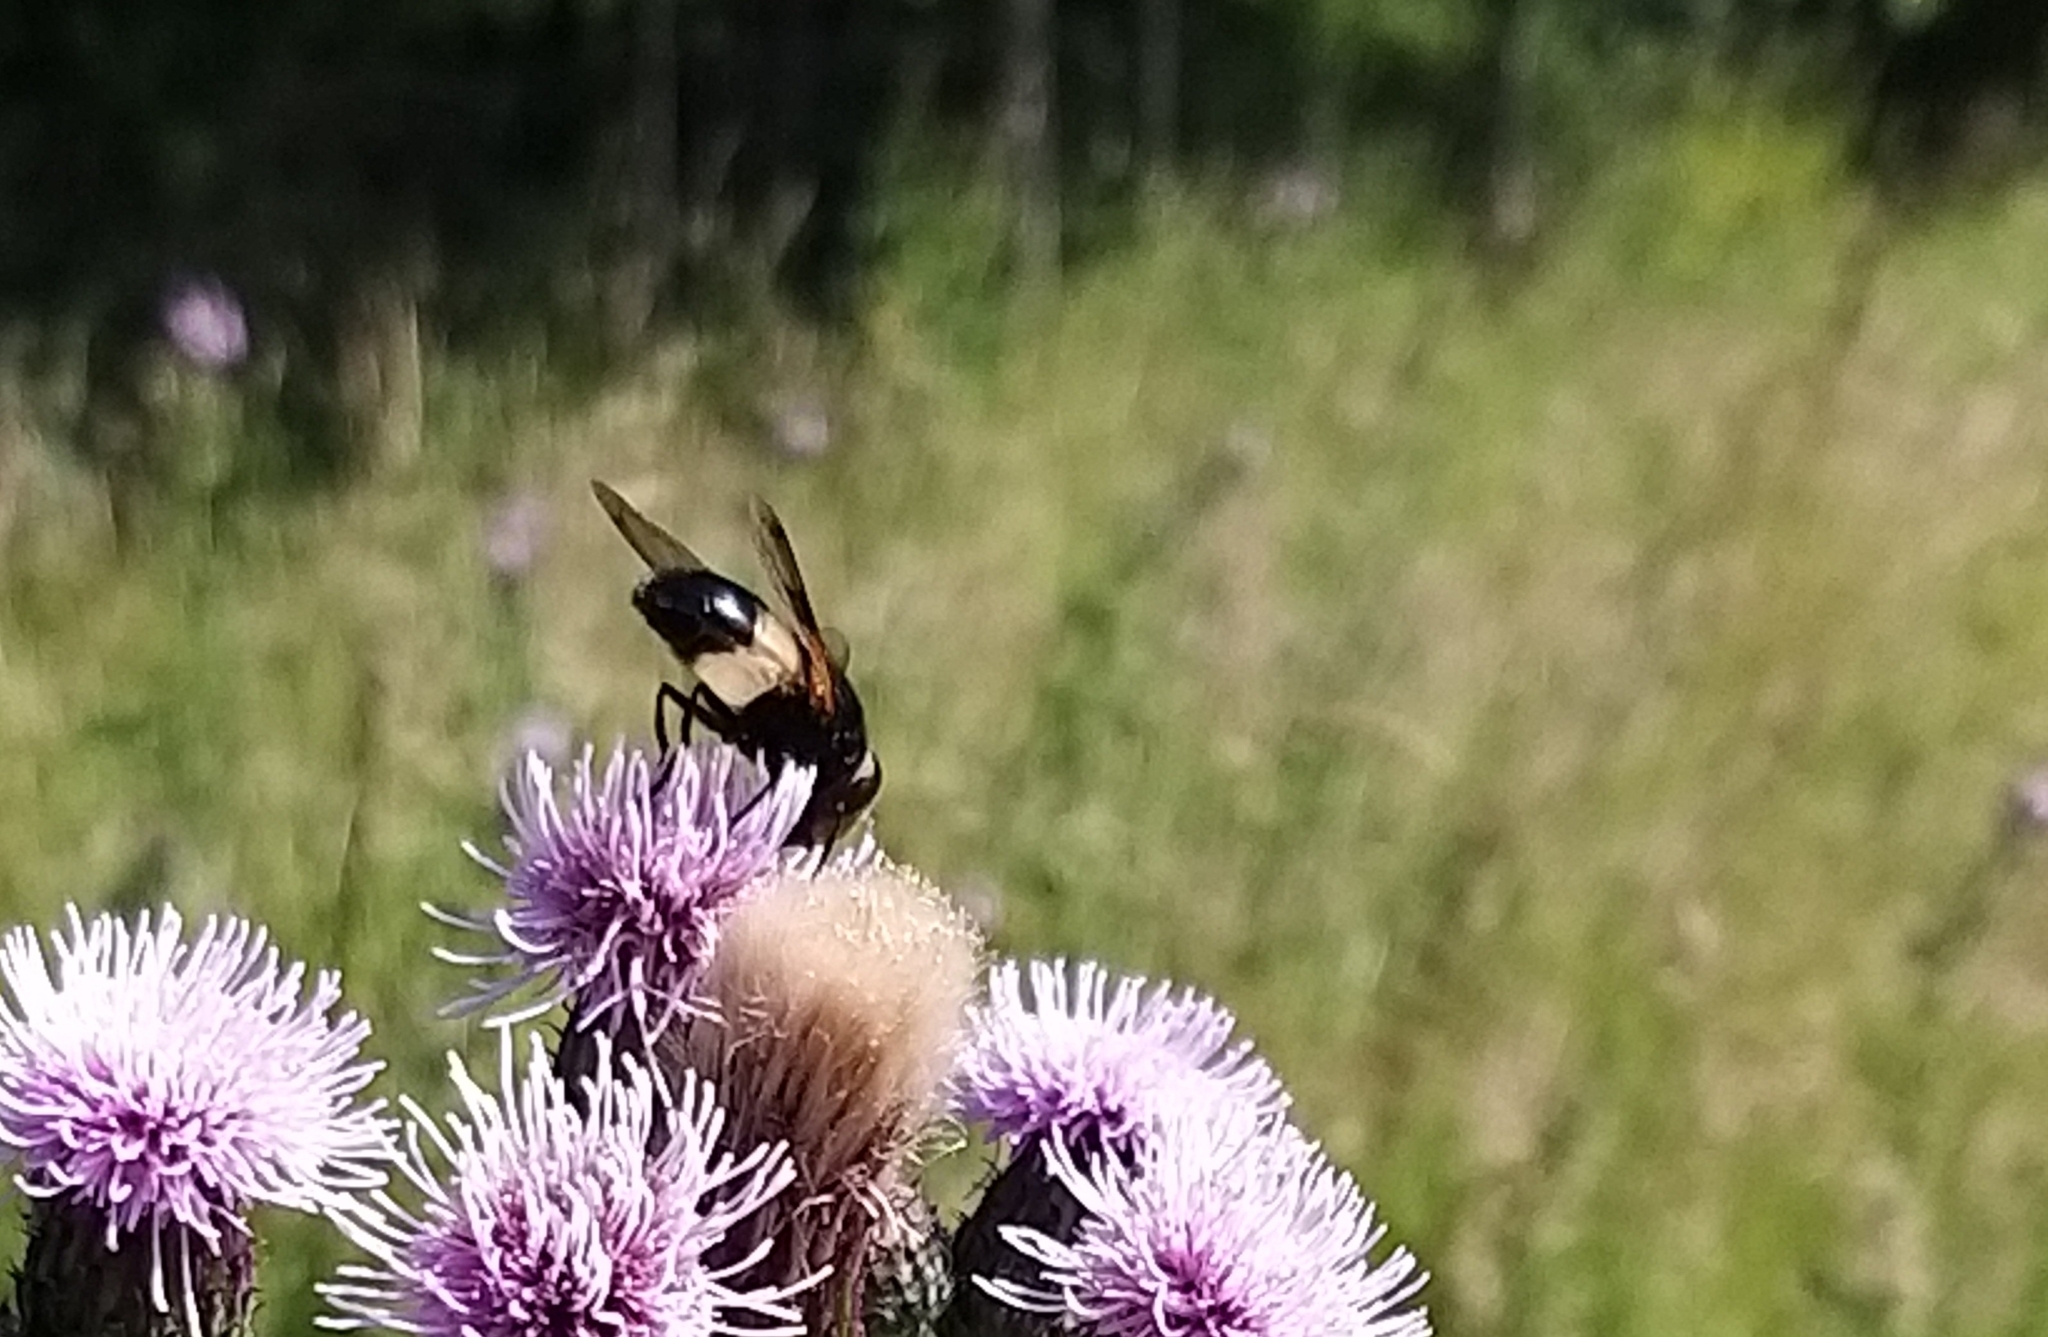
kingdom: Animalia
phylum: Arthropoda
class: Insecta
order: Diptera
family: Syrphidae
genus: Volucella
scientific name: Volucella pellucens
